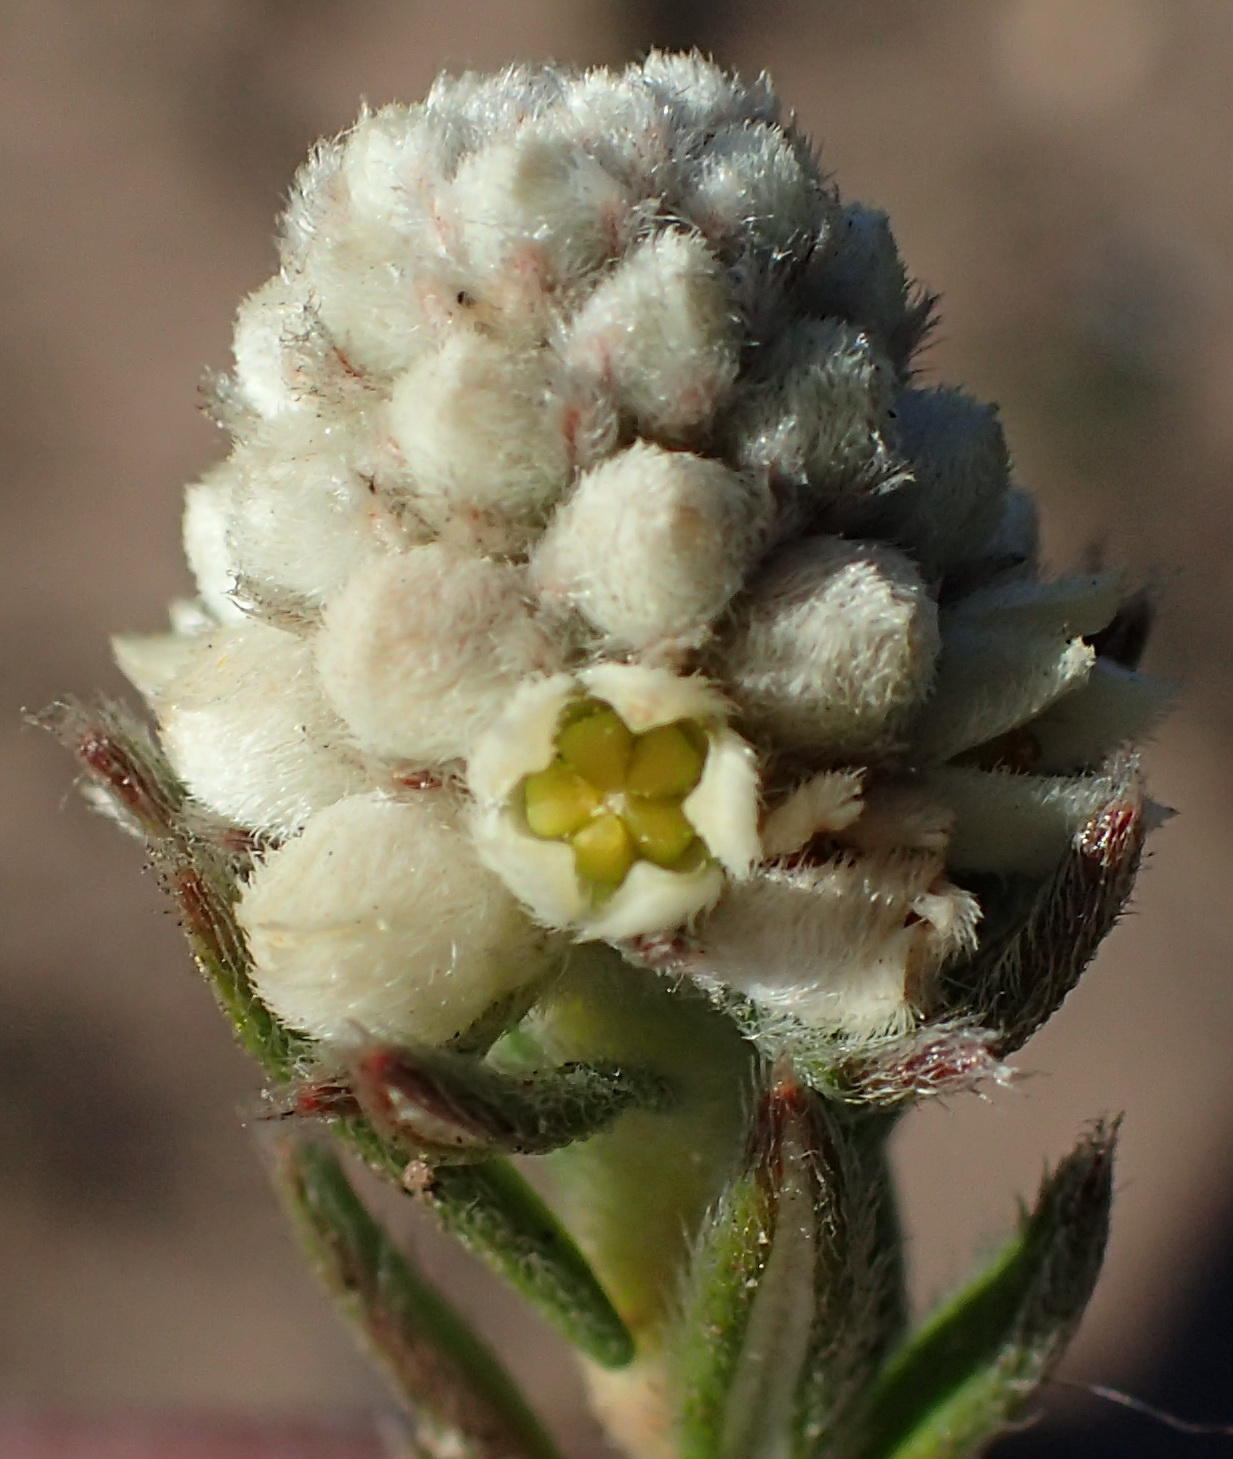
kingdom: Plantae
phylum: Tracheophyta
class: Magnoliopsida
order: Rosales
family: Rhamnaceae
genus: Phylica
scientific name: Phylica imberbis
